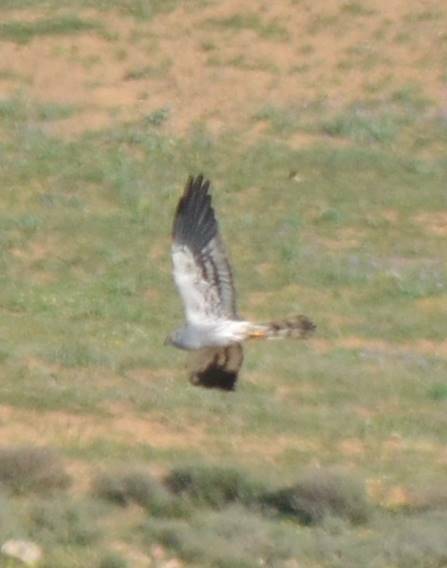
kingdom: Animalia
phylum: Chordata
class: Aves
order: Accipitriformes
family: Accipitridae
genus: Circus
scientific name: Circus pygargus
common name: Montagu's harrier
